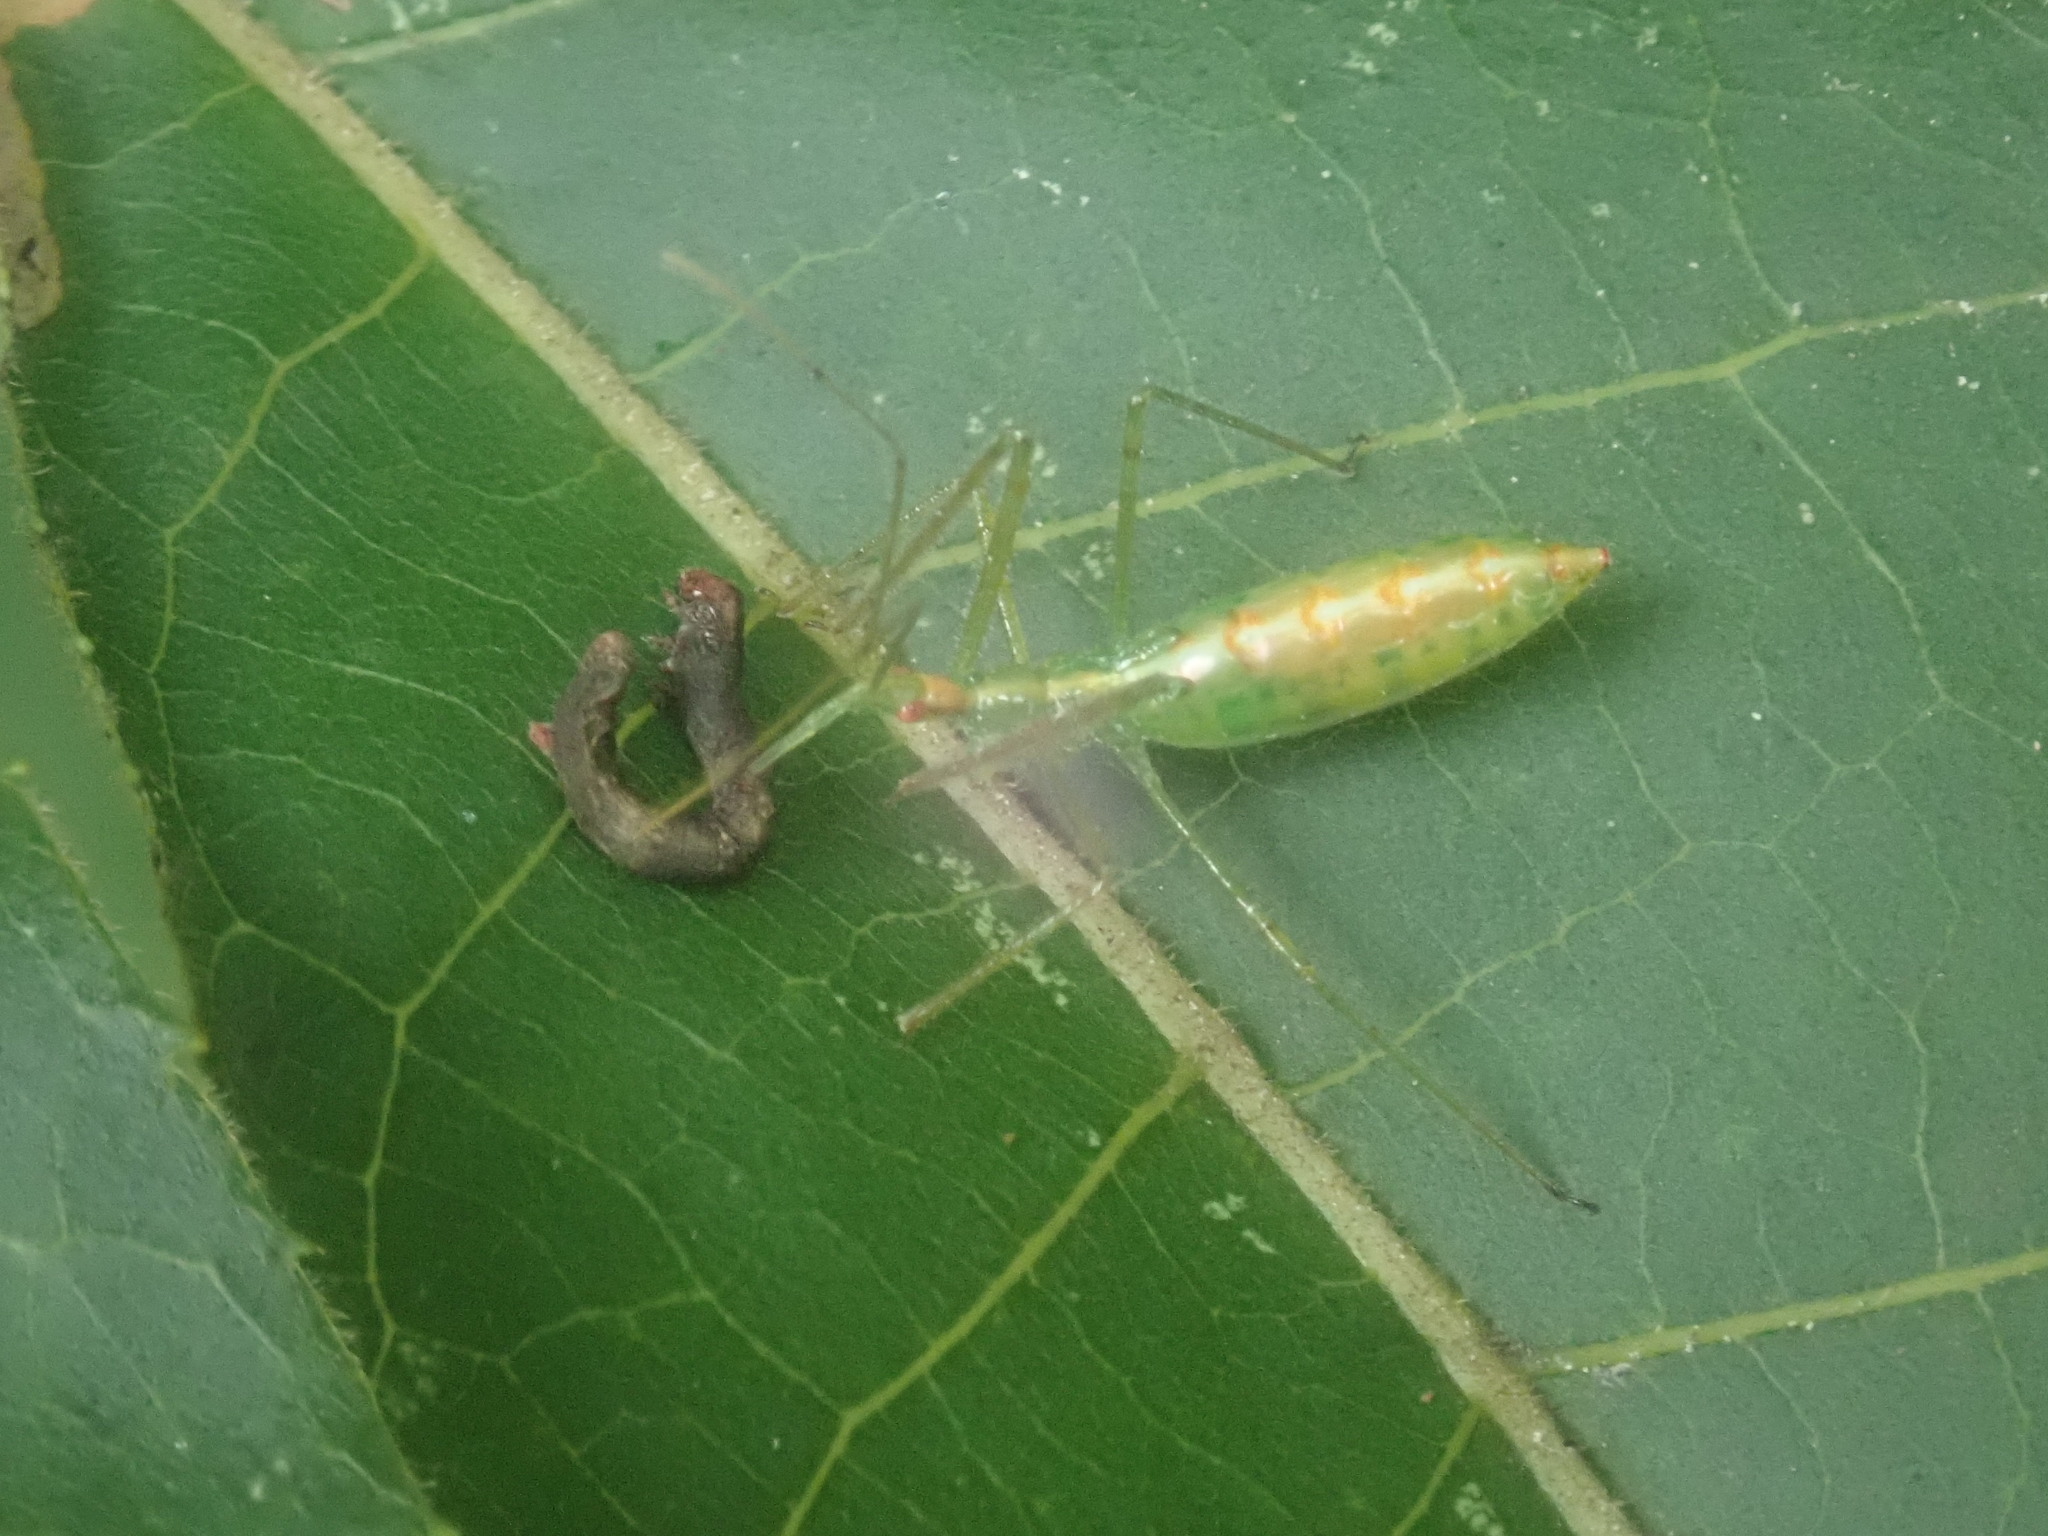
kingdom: Animalia
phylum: Arthropoda
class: Insecta
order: Hemiptera
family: Reduviidae
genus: Zelus
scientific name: Zelus luridus
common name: Pale green assassin bug
